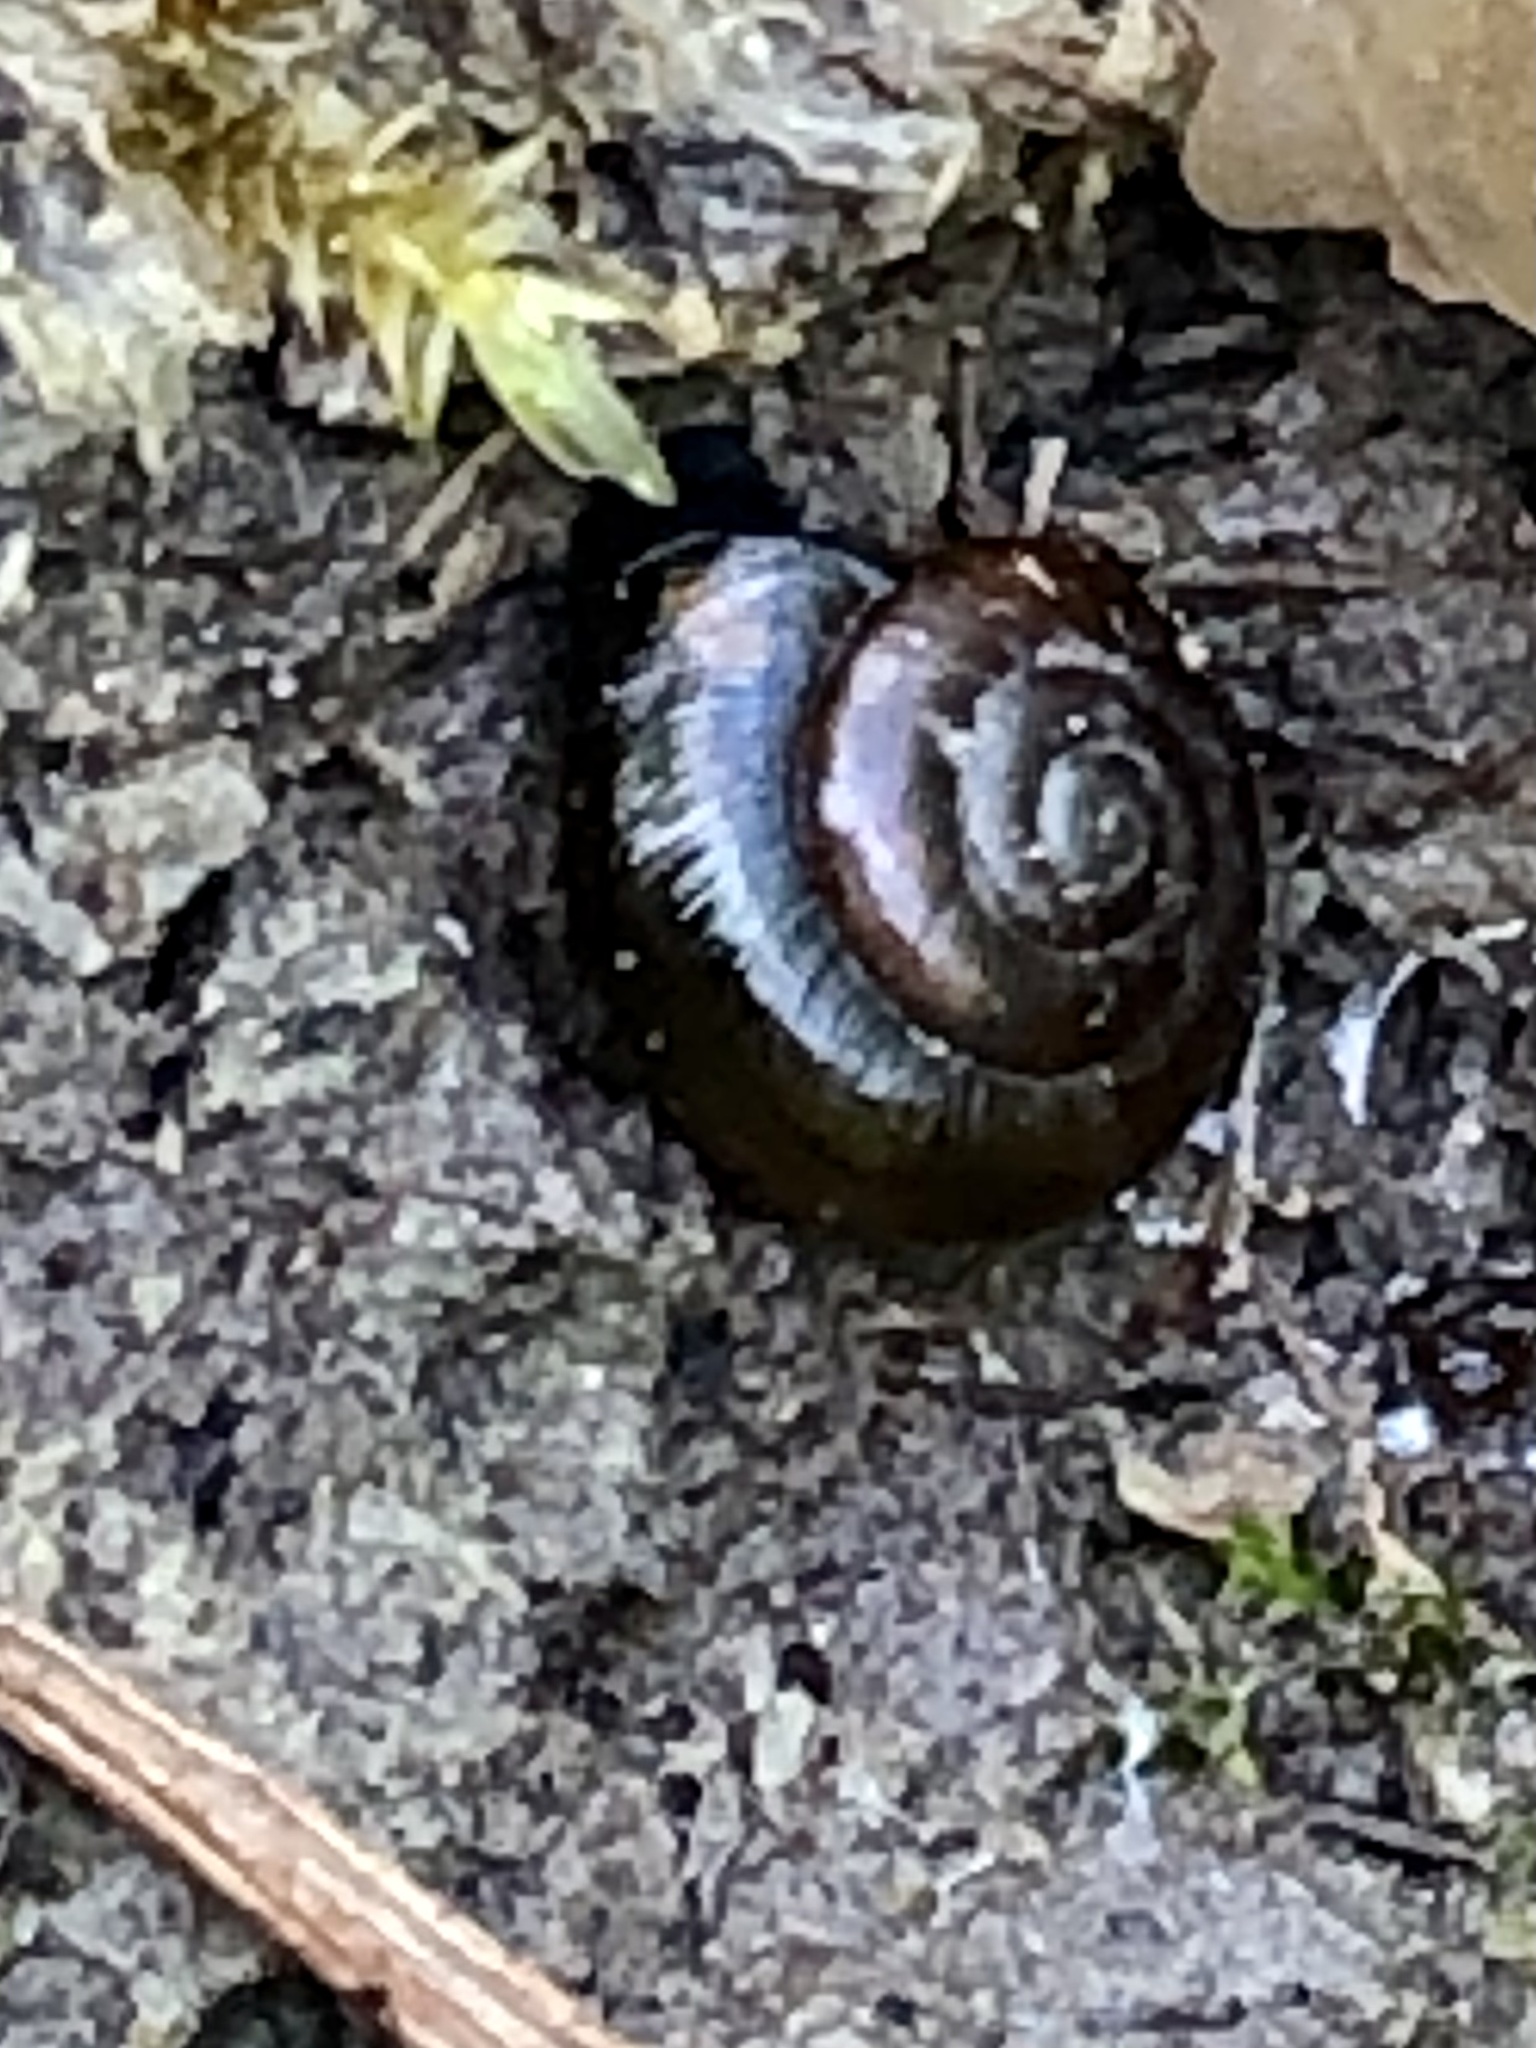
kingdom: Animalia
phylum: Mollusca
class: Gastropoda
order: Stylommatophora
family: Gastrodontidae
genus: Zonitoides
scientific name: Zonitoides nitidus
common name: Shiny glass snail
